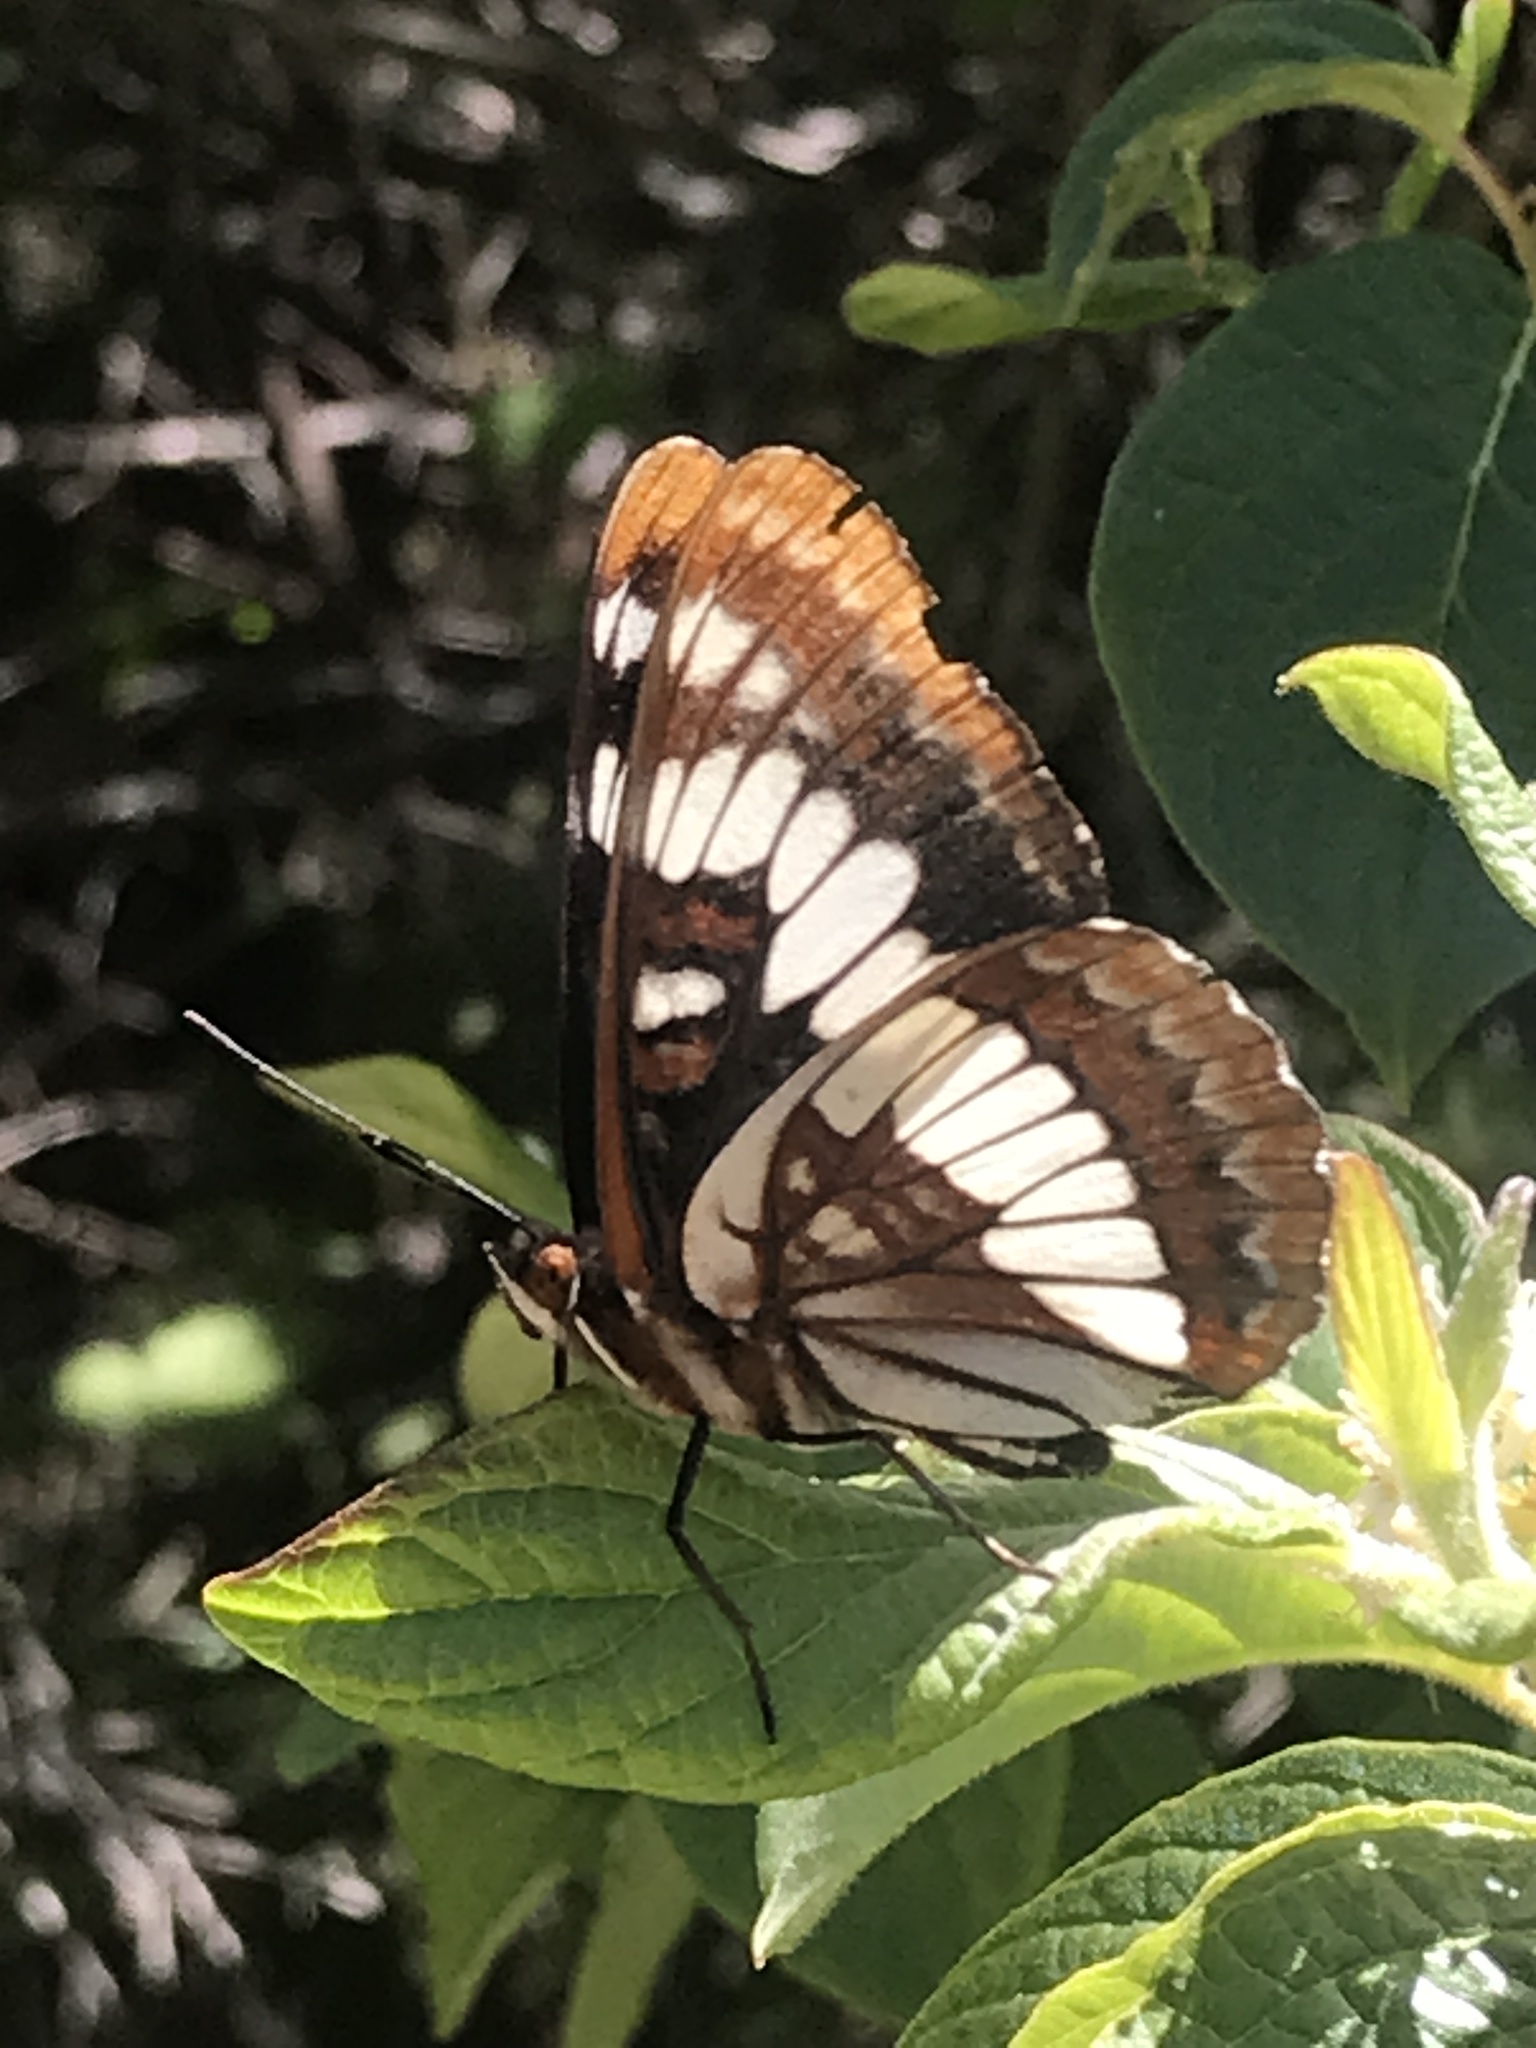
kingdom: Animalia
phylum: Arthropoda
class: Insecta
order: Lepidoptera
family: Nymphalidae
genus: Limenitis
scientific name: Limenitis lorquini
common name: Lorquin's admiral
